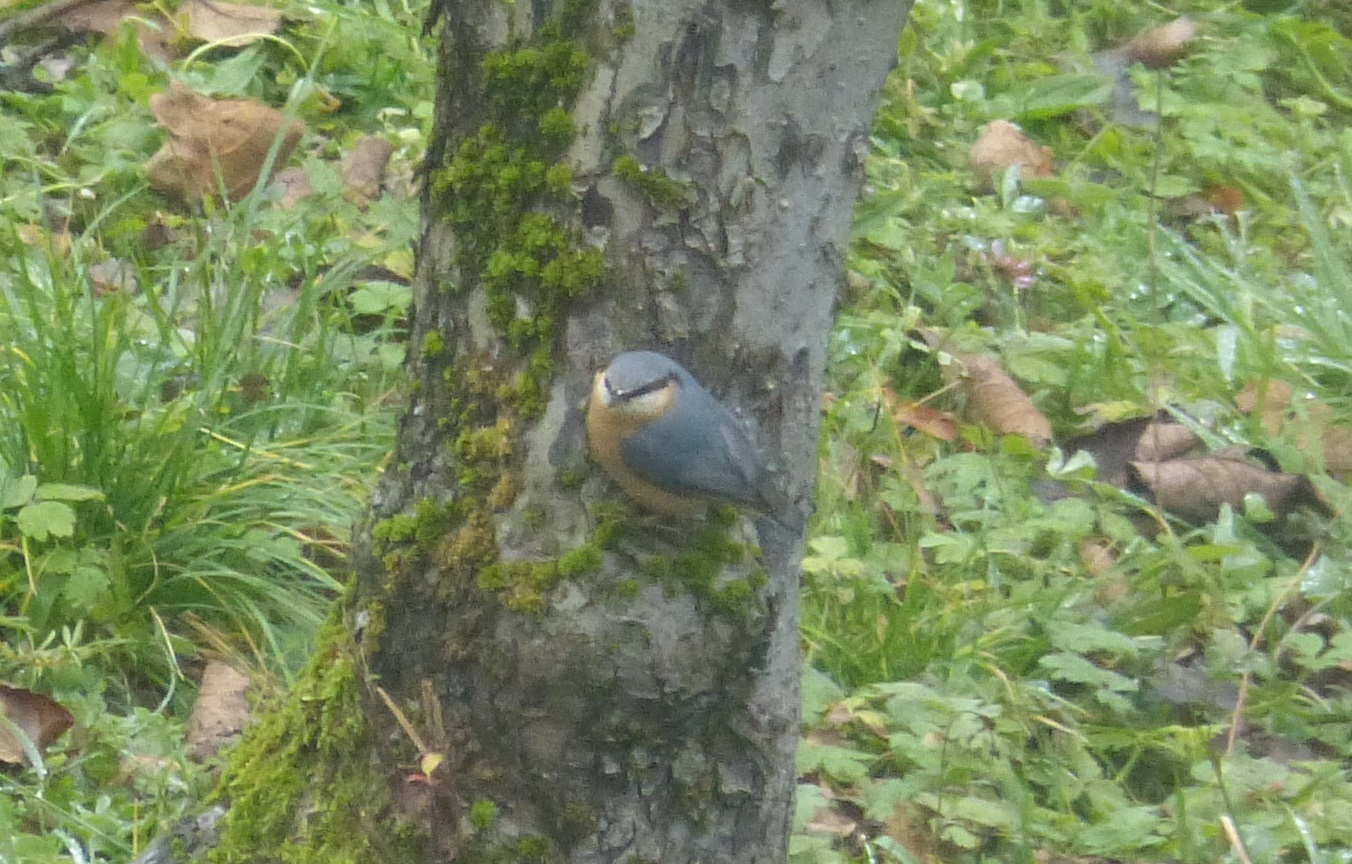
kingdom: Animalia
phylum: Chordata
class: Aves
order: Passeriformes
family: Sittidae
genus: Sitta
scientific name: Sitta europaea
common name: Eurasian nuthatch
